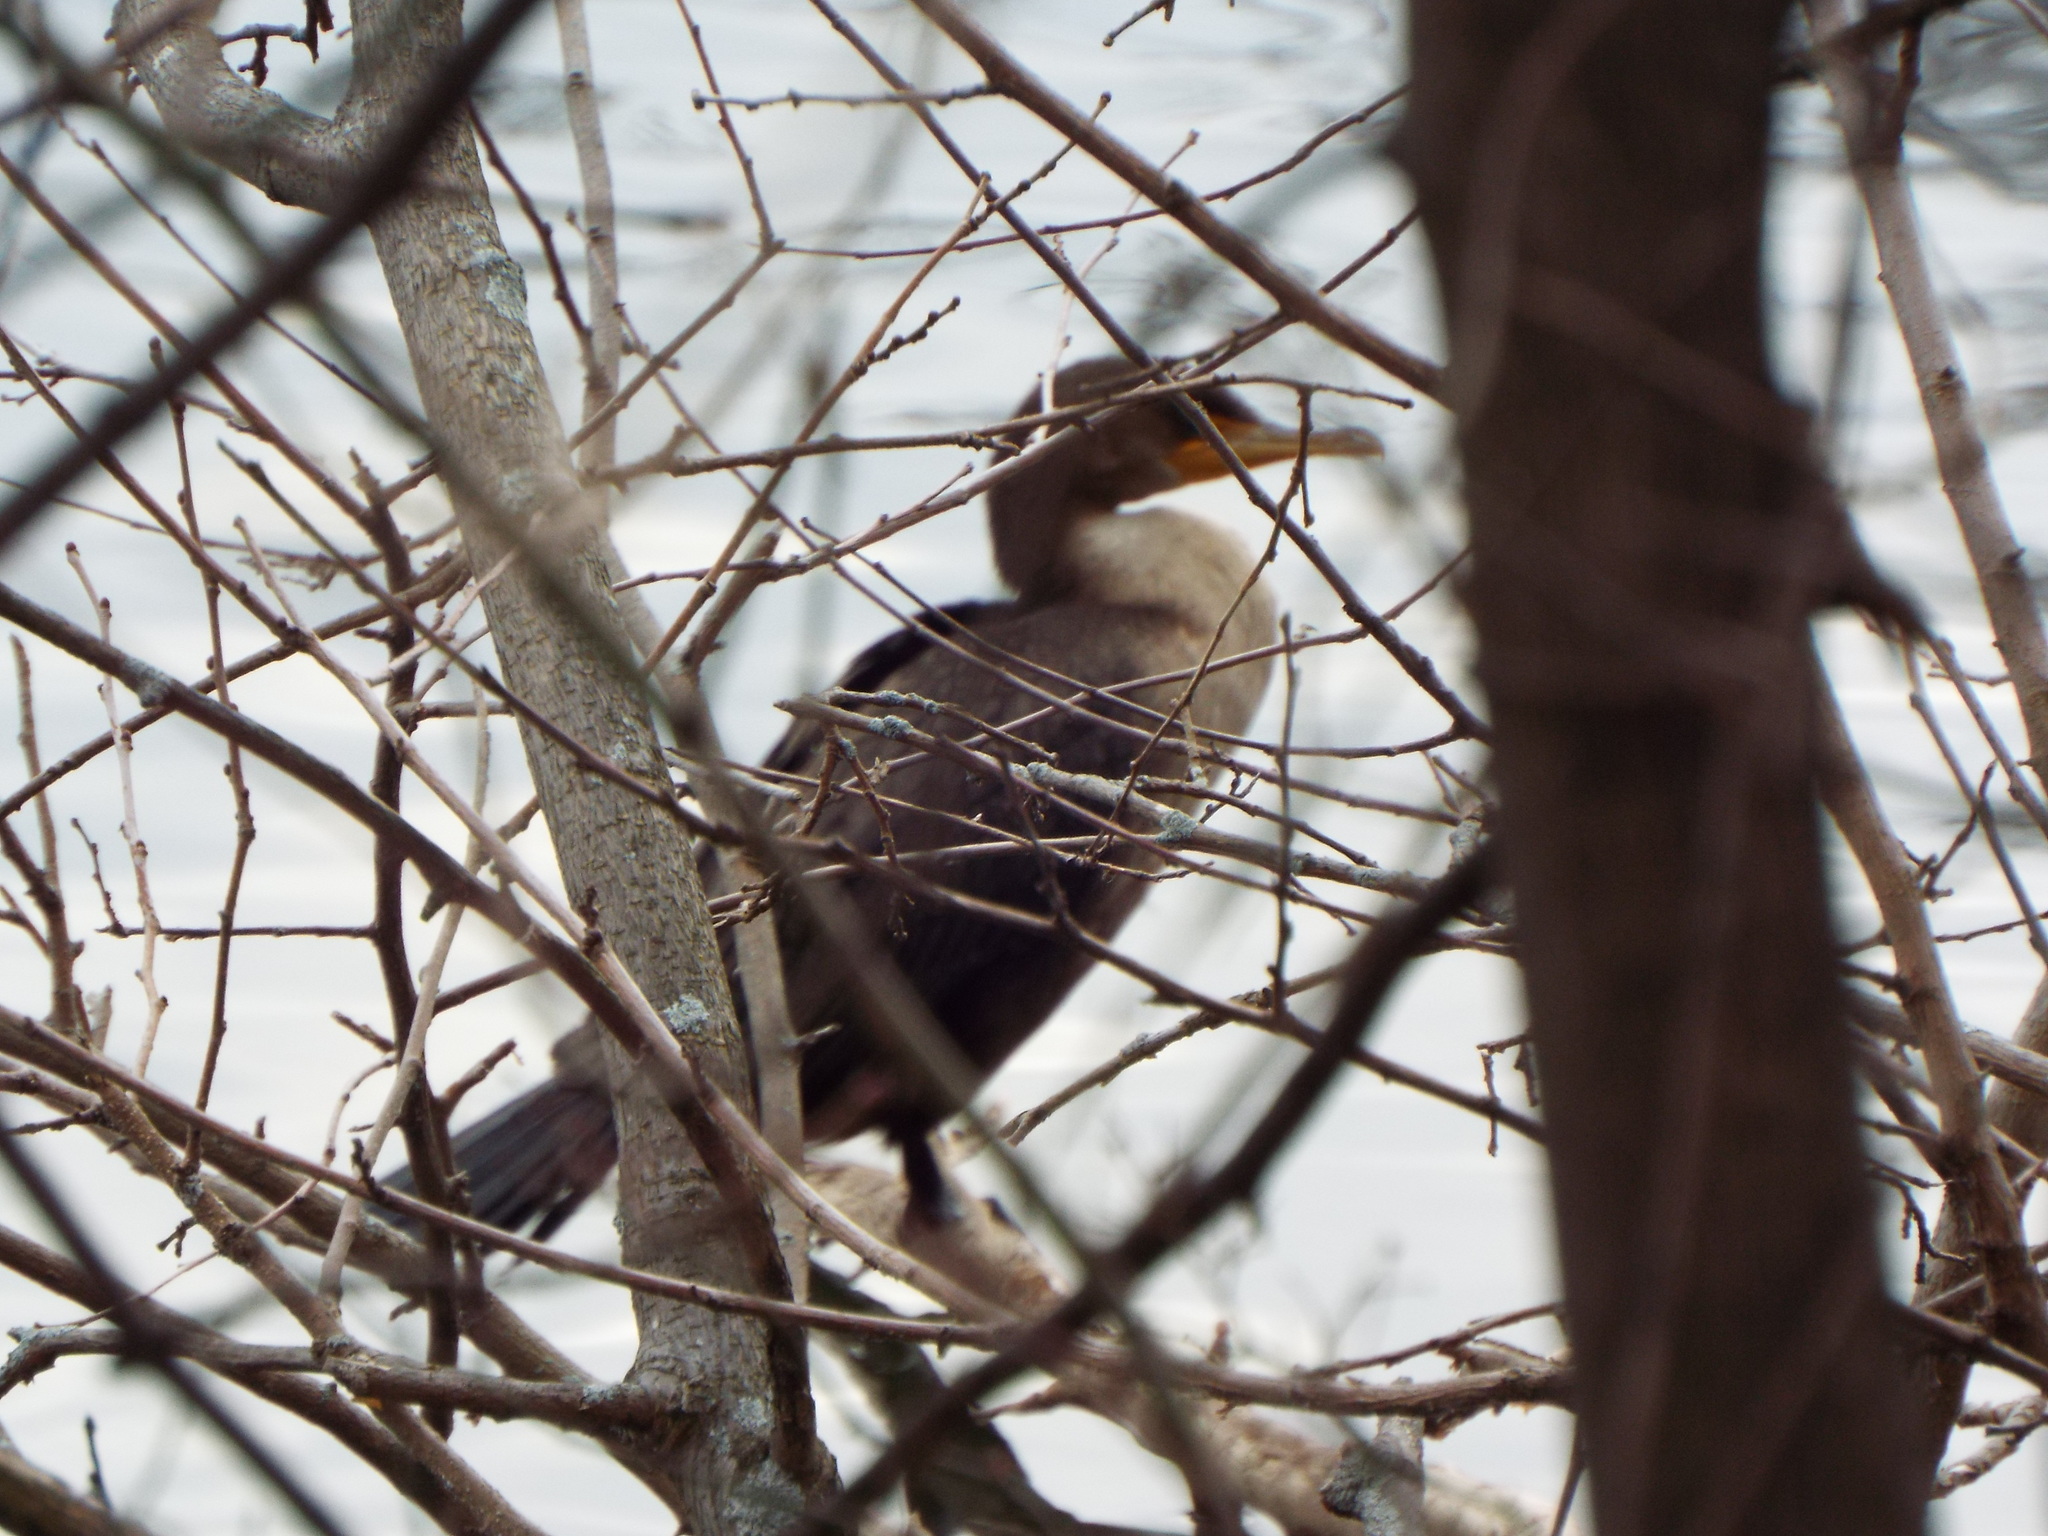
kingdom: Animalia
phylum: Chordata
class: Aves
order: Suliformes
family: Phalacrocoracidae
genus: Phalacrocorax
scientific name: Phalacrocorax auritus
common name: Double-crested cormorant
